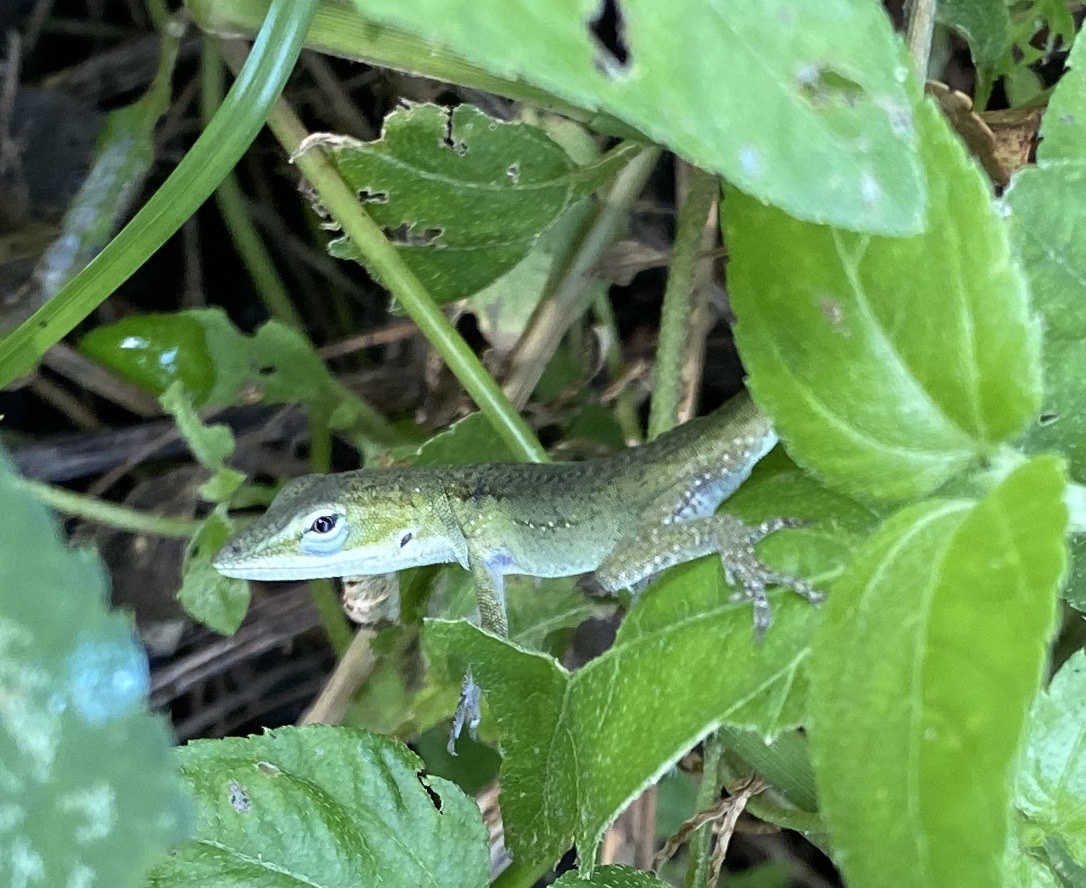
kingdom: Animalia
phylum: Chordata
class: Squamata
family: Dactyloidae
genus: Anolis
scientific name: Anolis carolinensis
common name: Green anole
